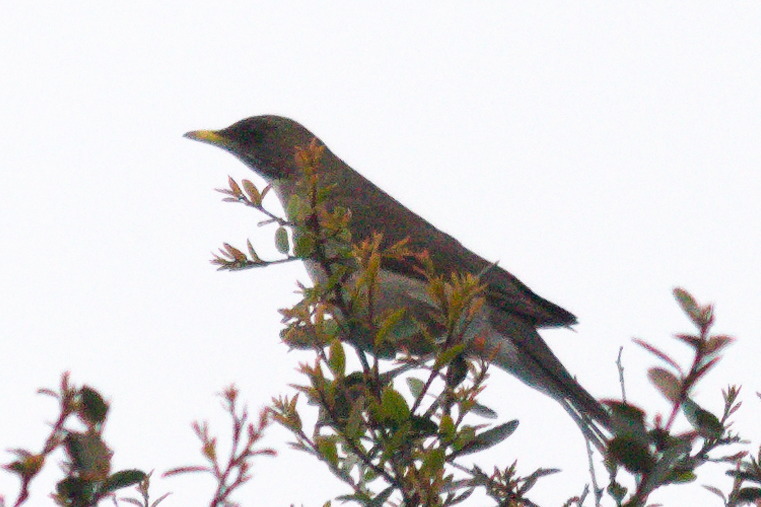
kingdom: Animalia
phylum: Chordata
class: Aves
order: Passeriformes
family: Turdidae
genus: Turdus
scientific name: Turdus amaurochalinus
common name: Creamy-bellied thrush
